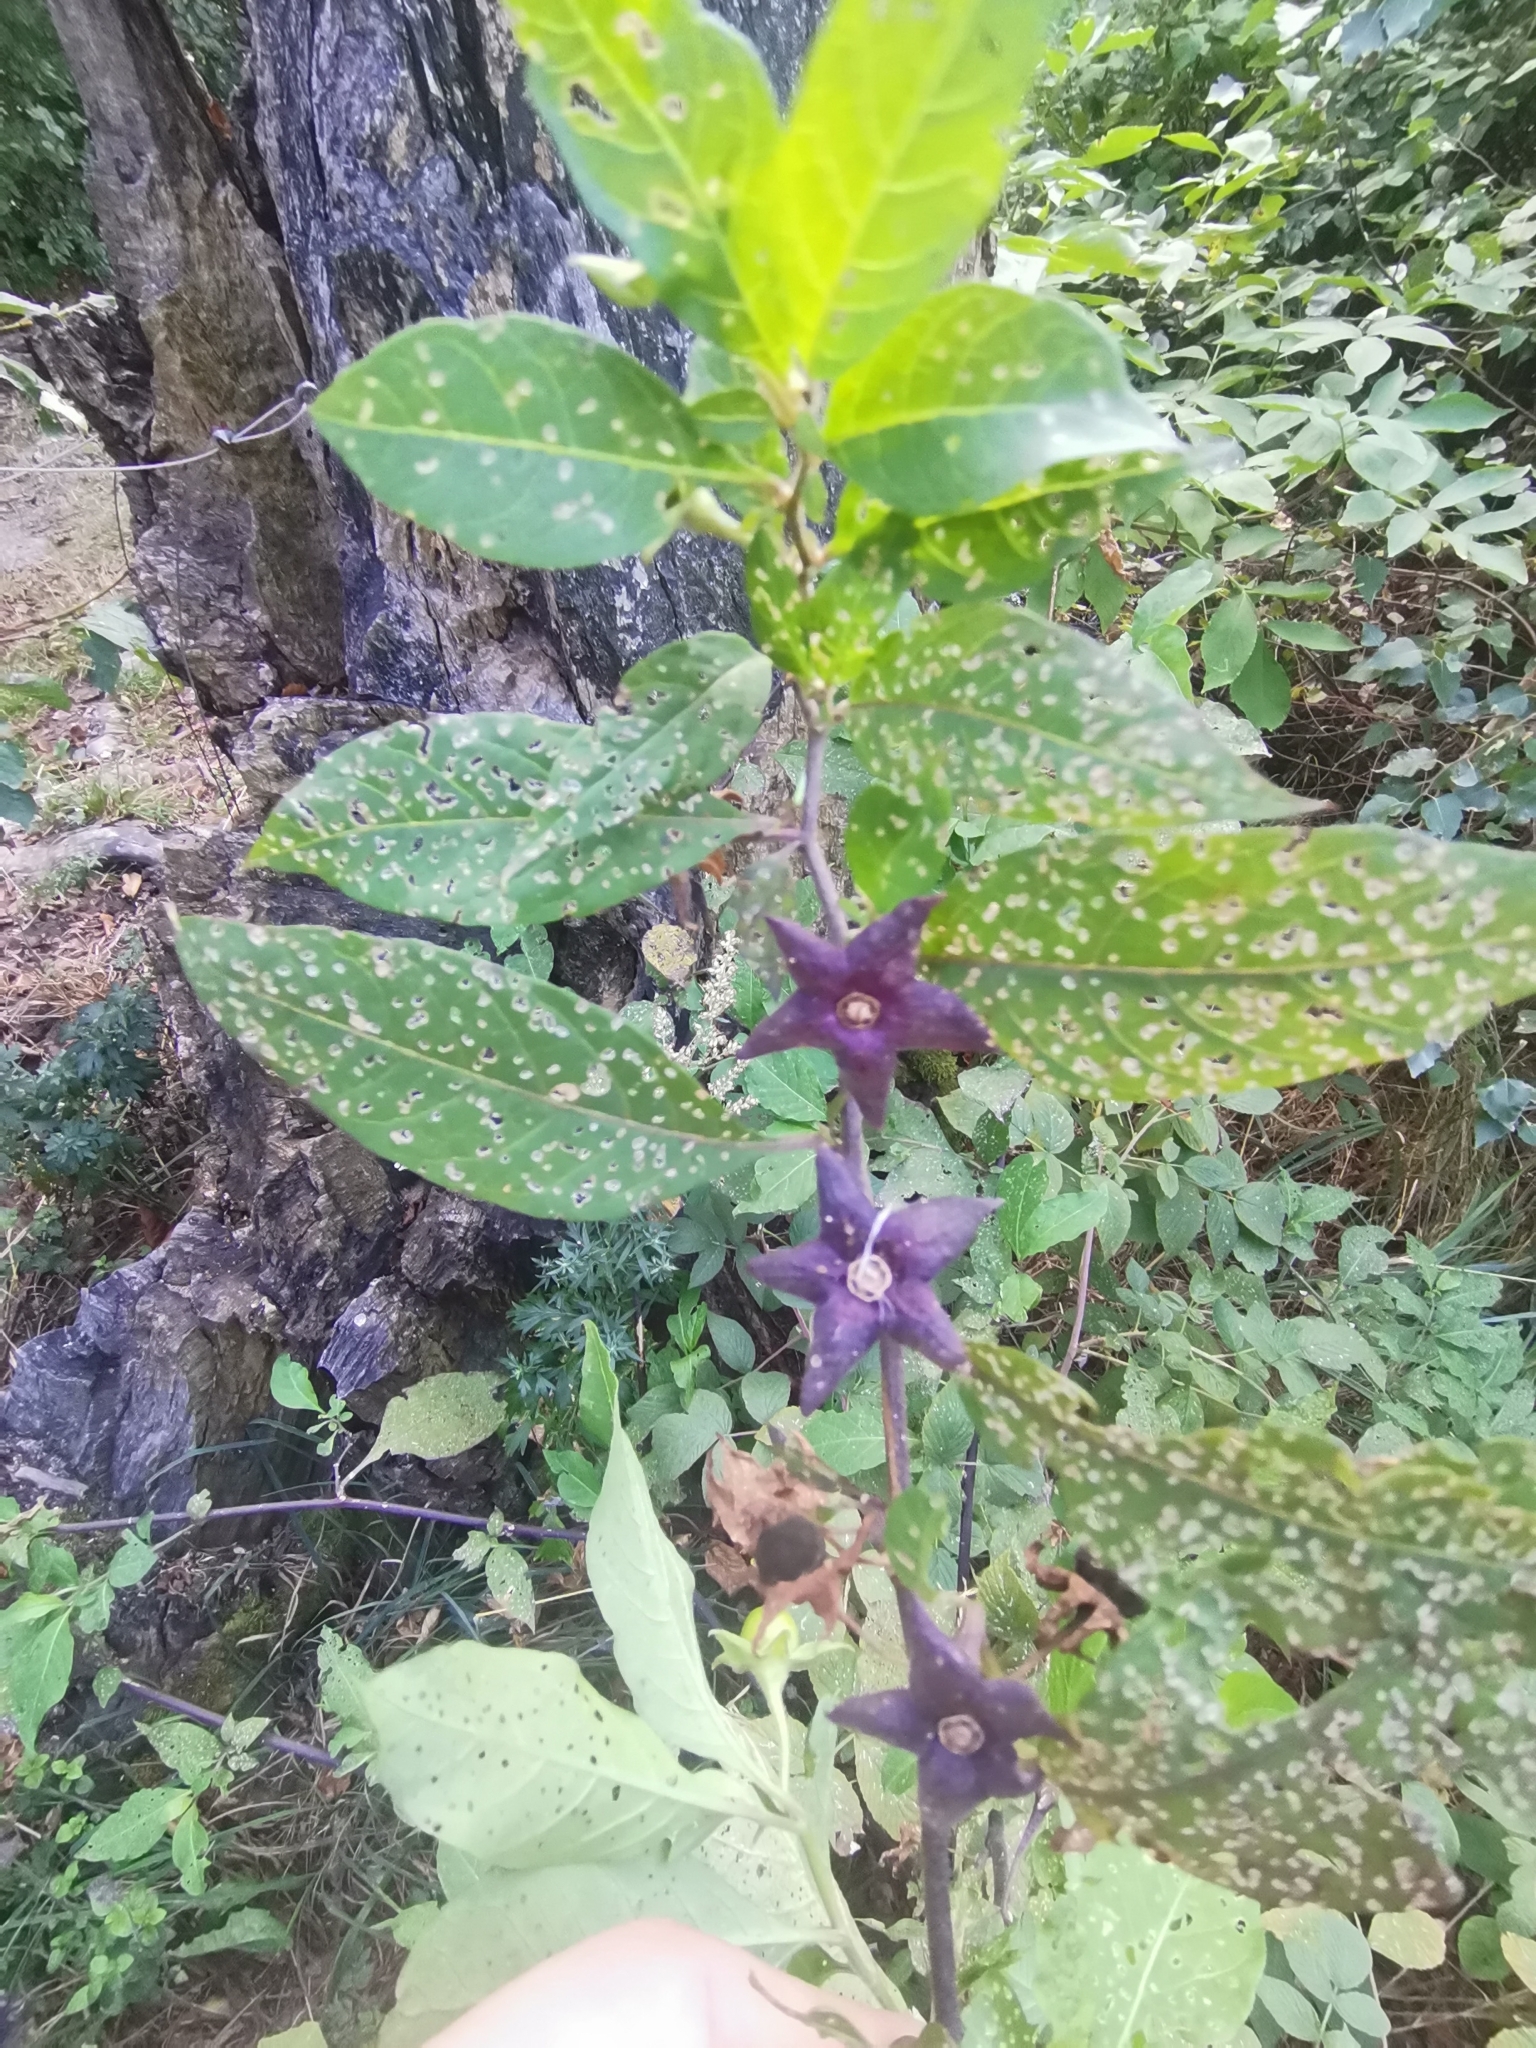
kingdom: Plantae
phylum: Tracheophyta
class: Magnoliopsida
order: Solanales
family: Solanaceae
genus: Atropa
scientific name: Atropa belladonna
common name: Deadly nightshade
